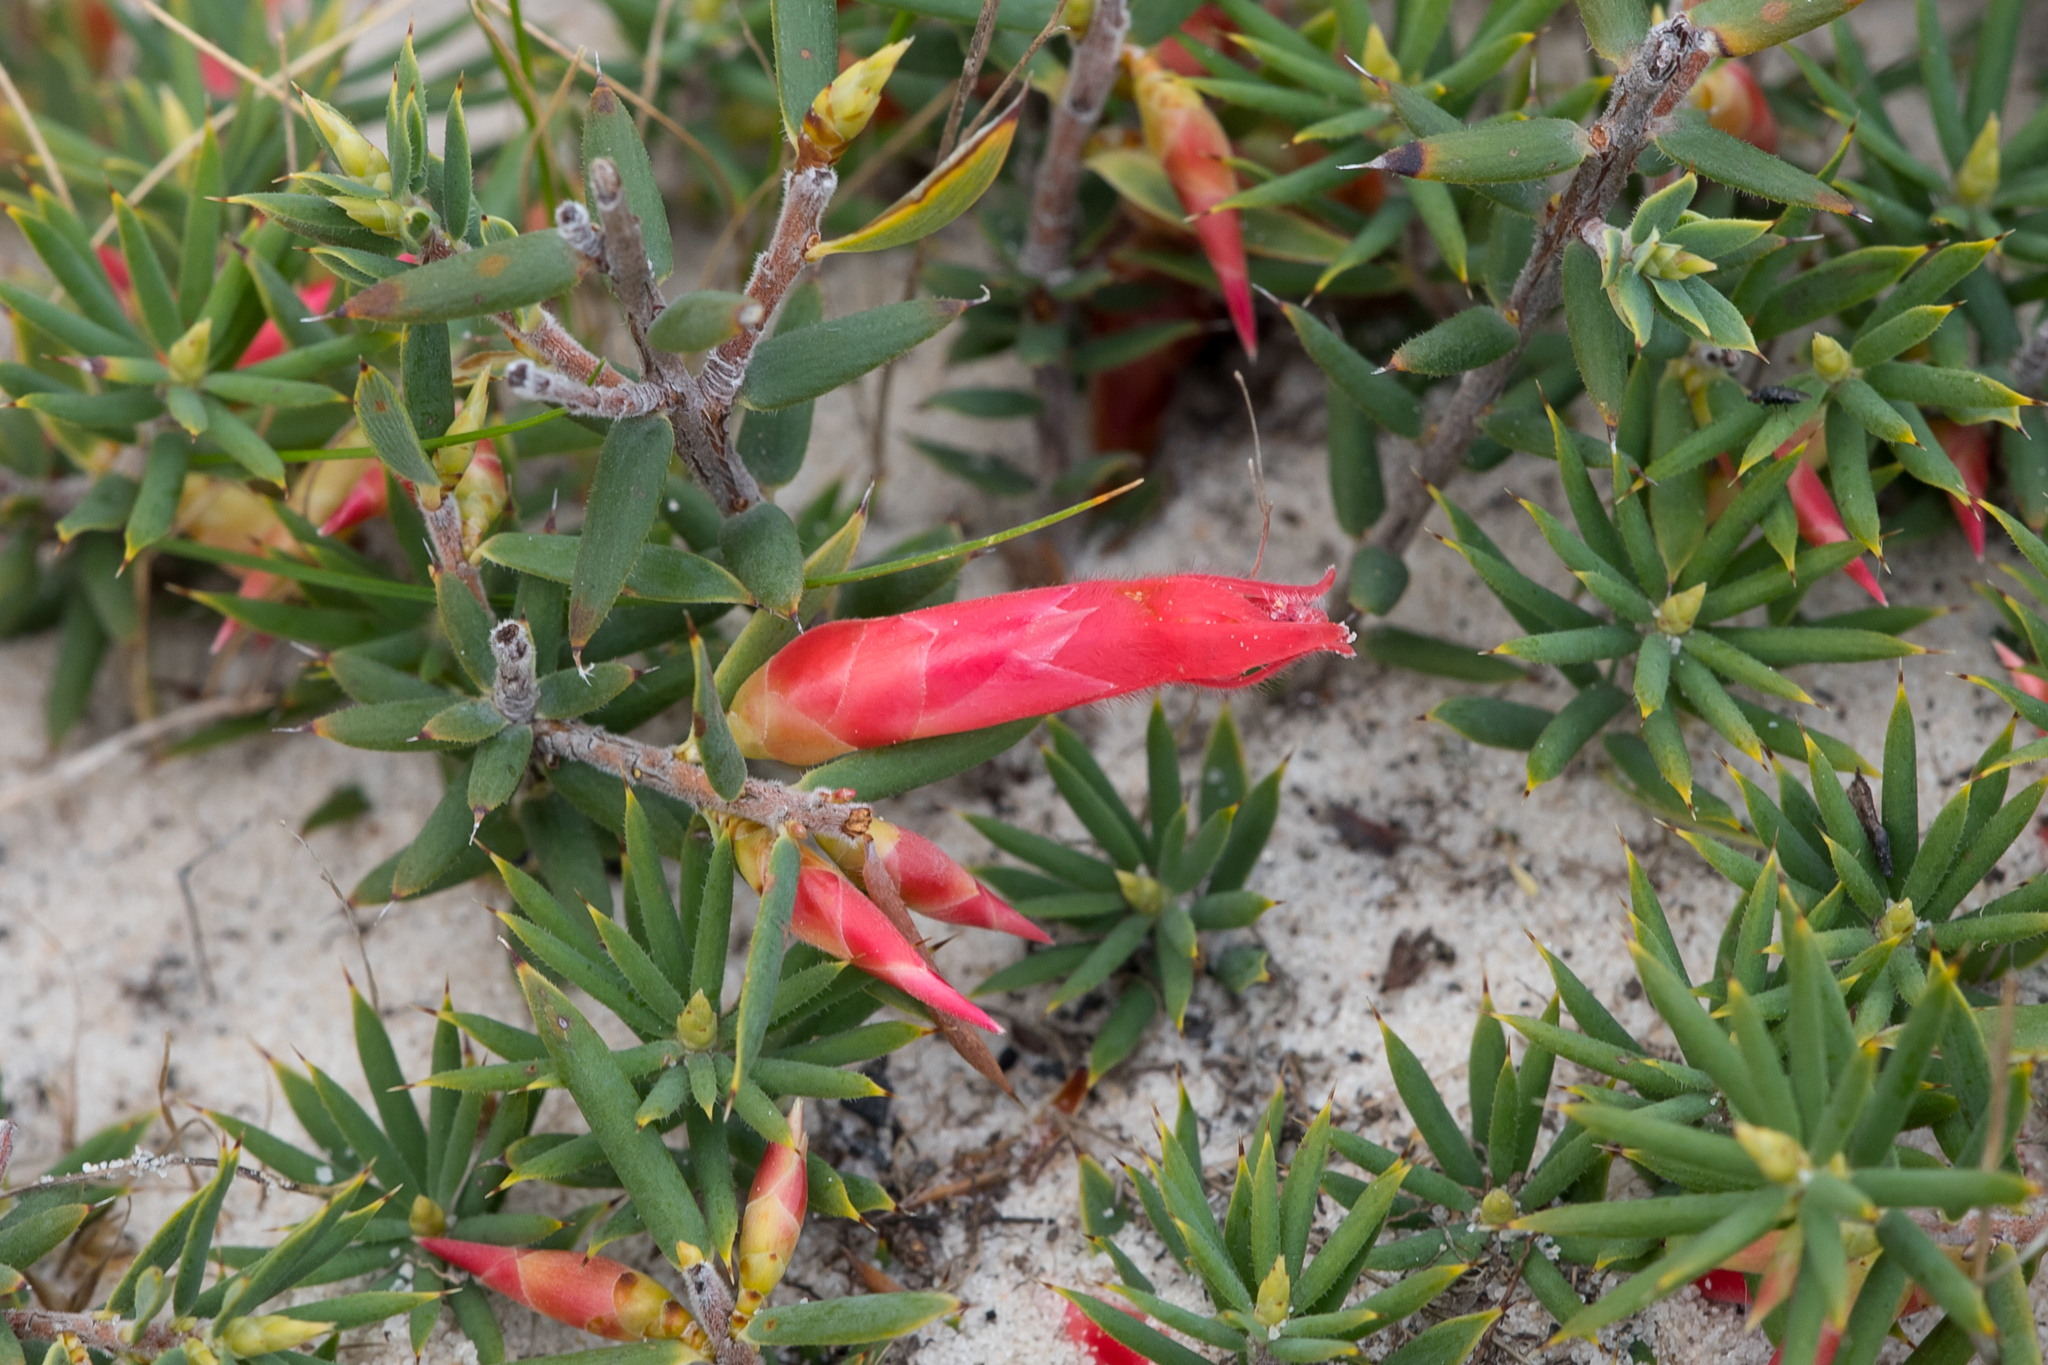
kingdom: Plantae
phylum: Tracheophyta
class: Magnoliopsida
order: Ericales
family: Ericaceae
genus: Stenanthera
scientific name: Stenanthera conostephioides
